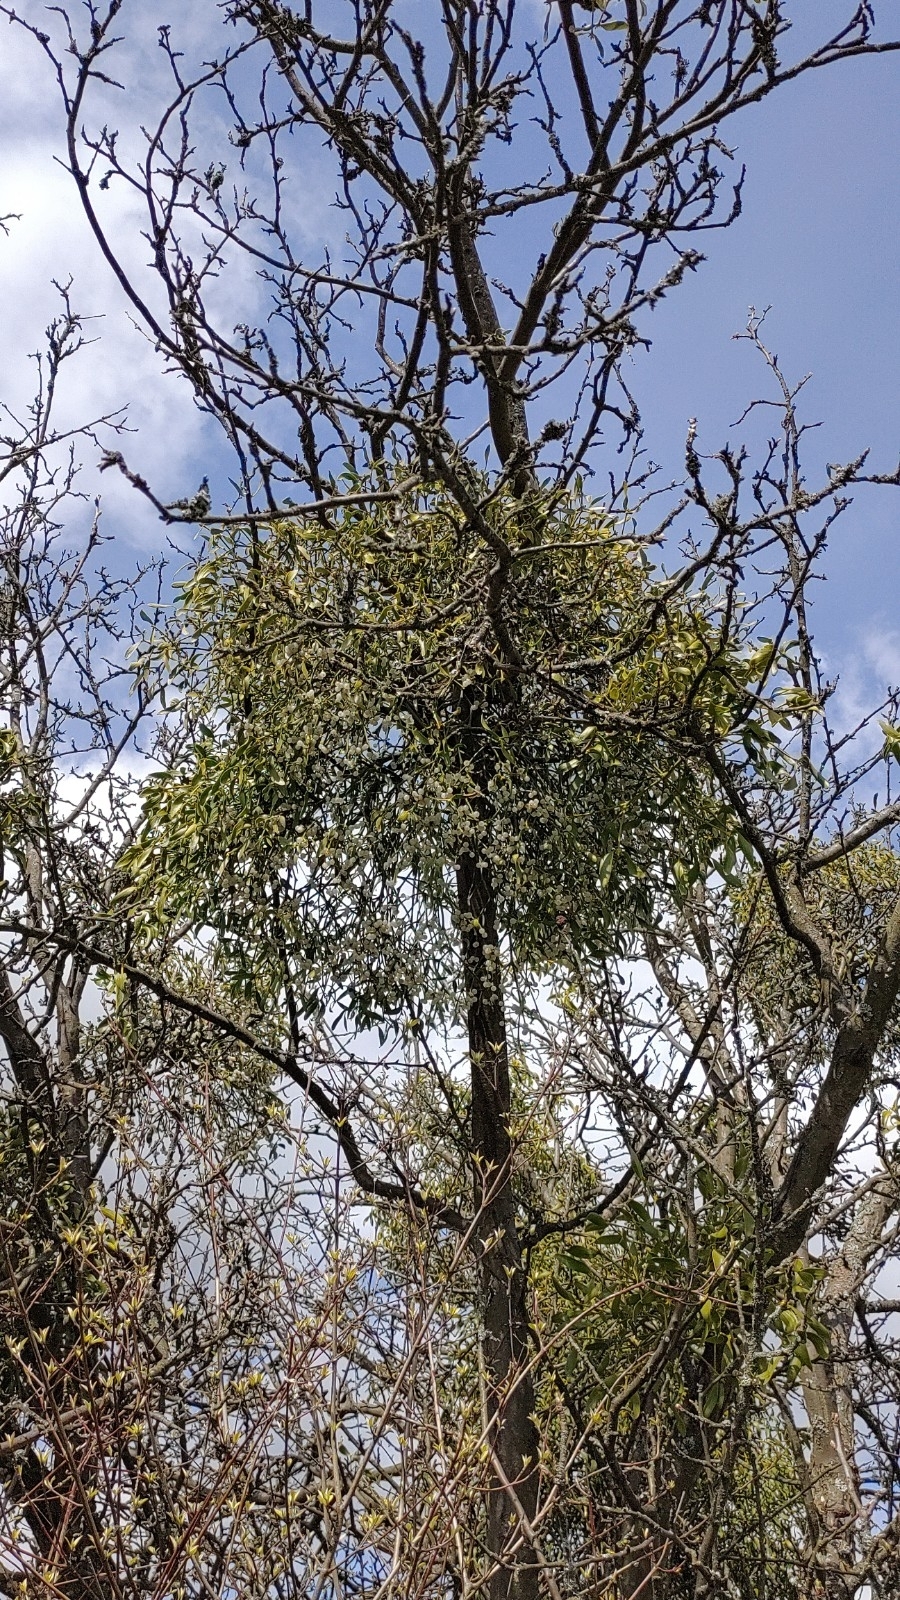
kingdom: Plantae
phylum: Tracheophyta
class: Magnoliopsida
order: Santalales
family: Viscaceae
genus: Viscum
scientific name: Viscum album
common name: Mistletoe
